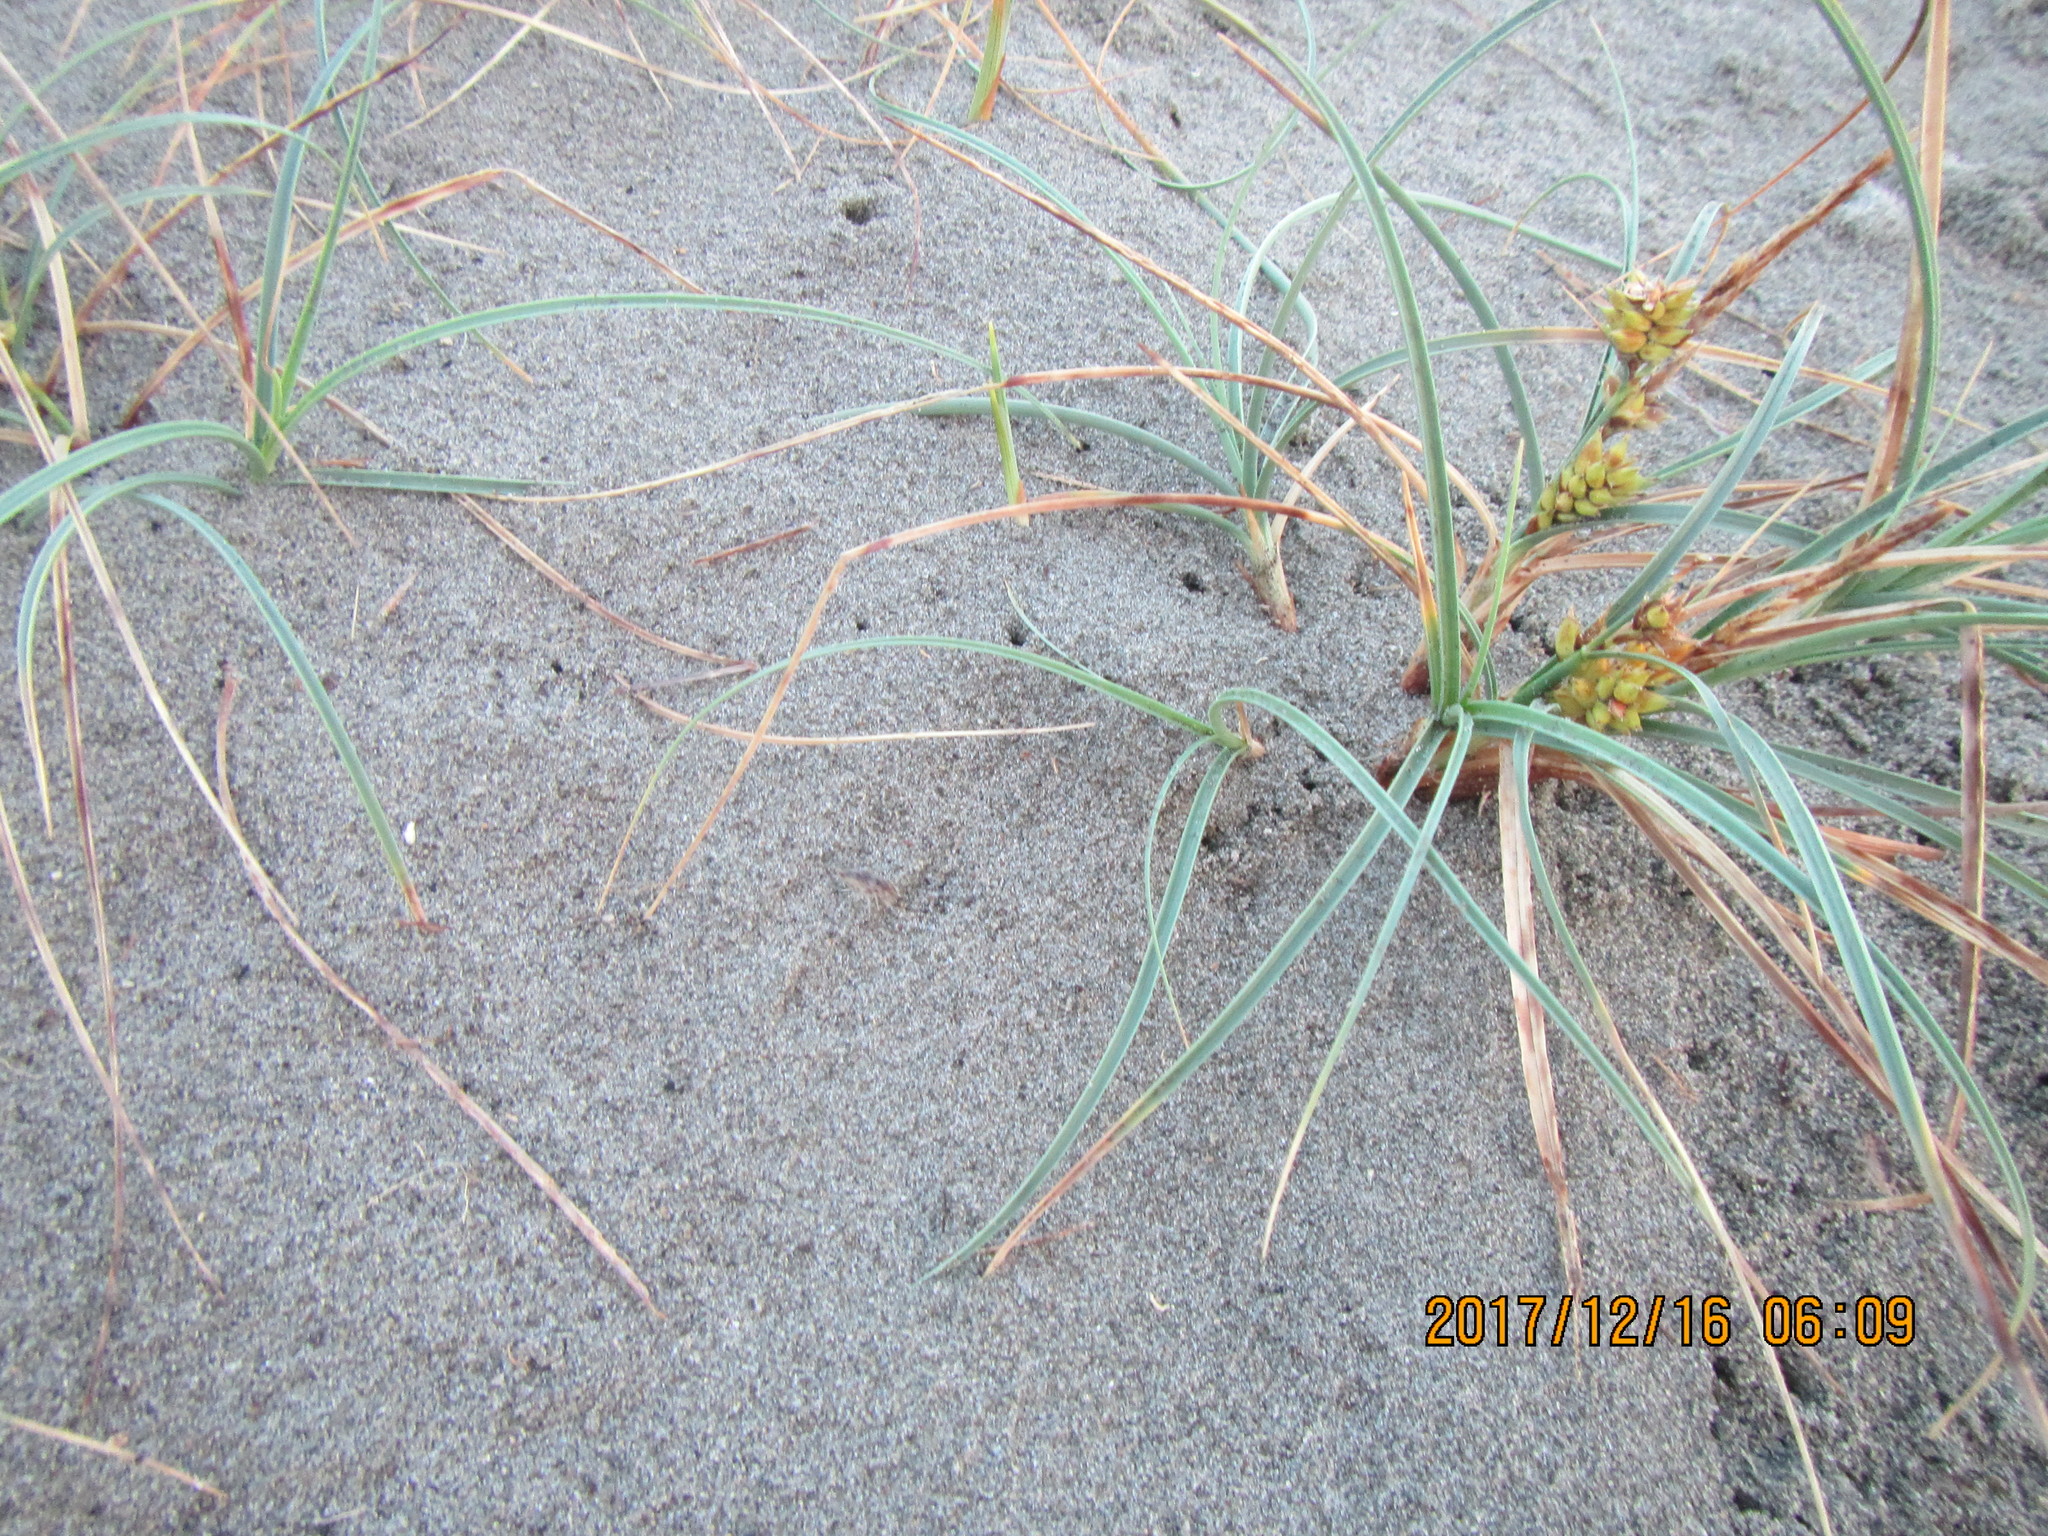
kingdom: Plantae
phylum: Tracheophyta
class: Liliopsida
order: Poales
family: Cyperaceae
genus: Carex
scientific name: Carex pumila
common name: Dwarf sedge
